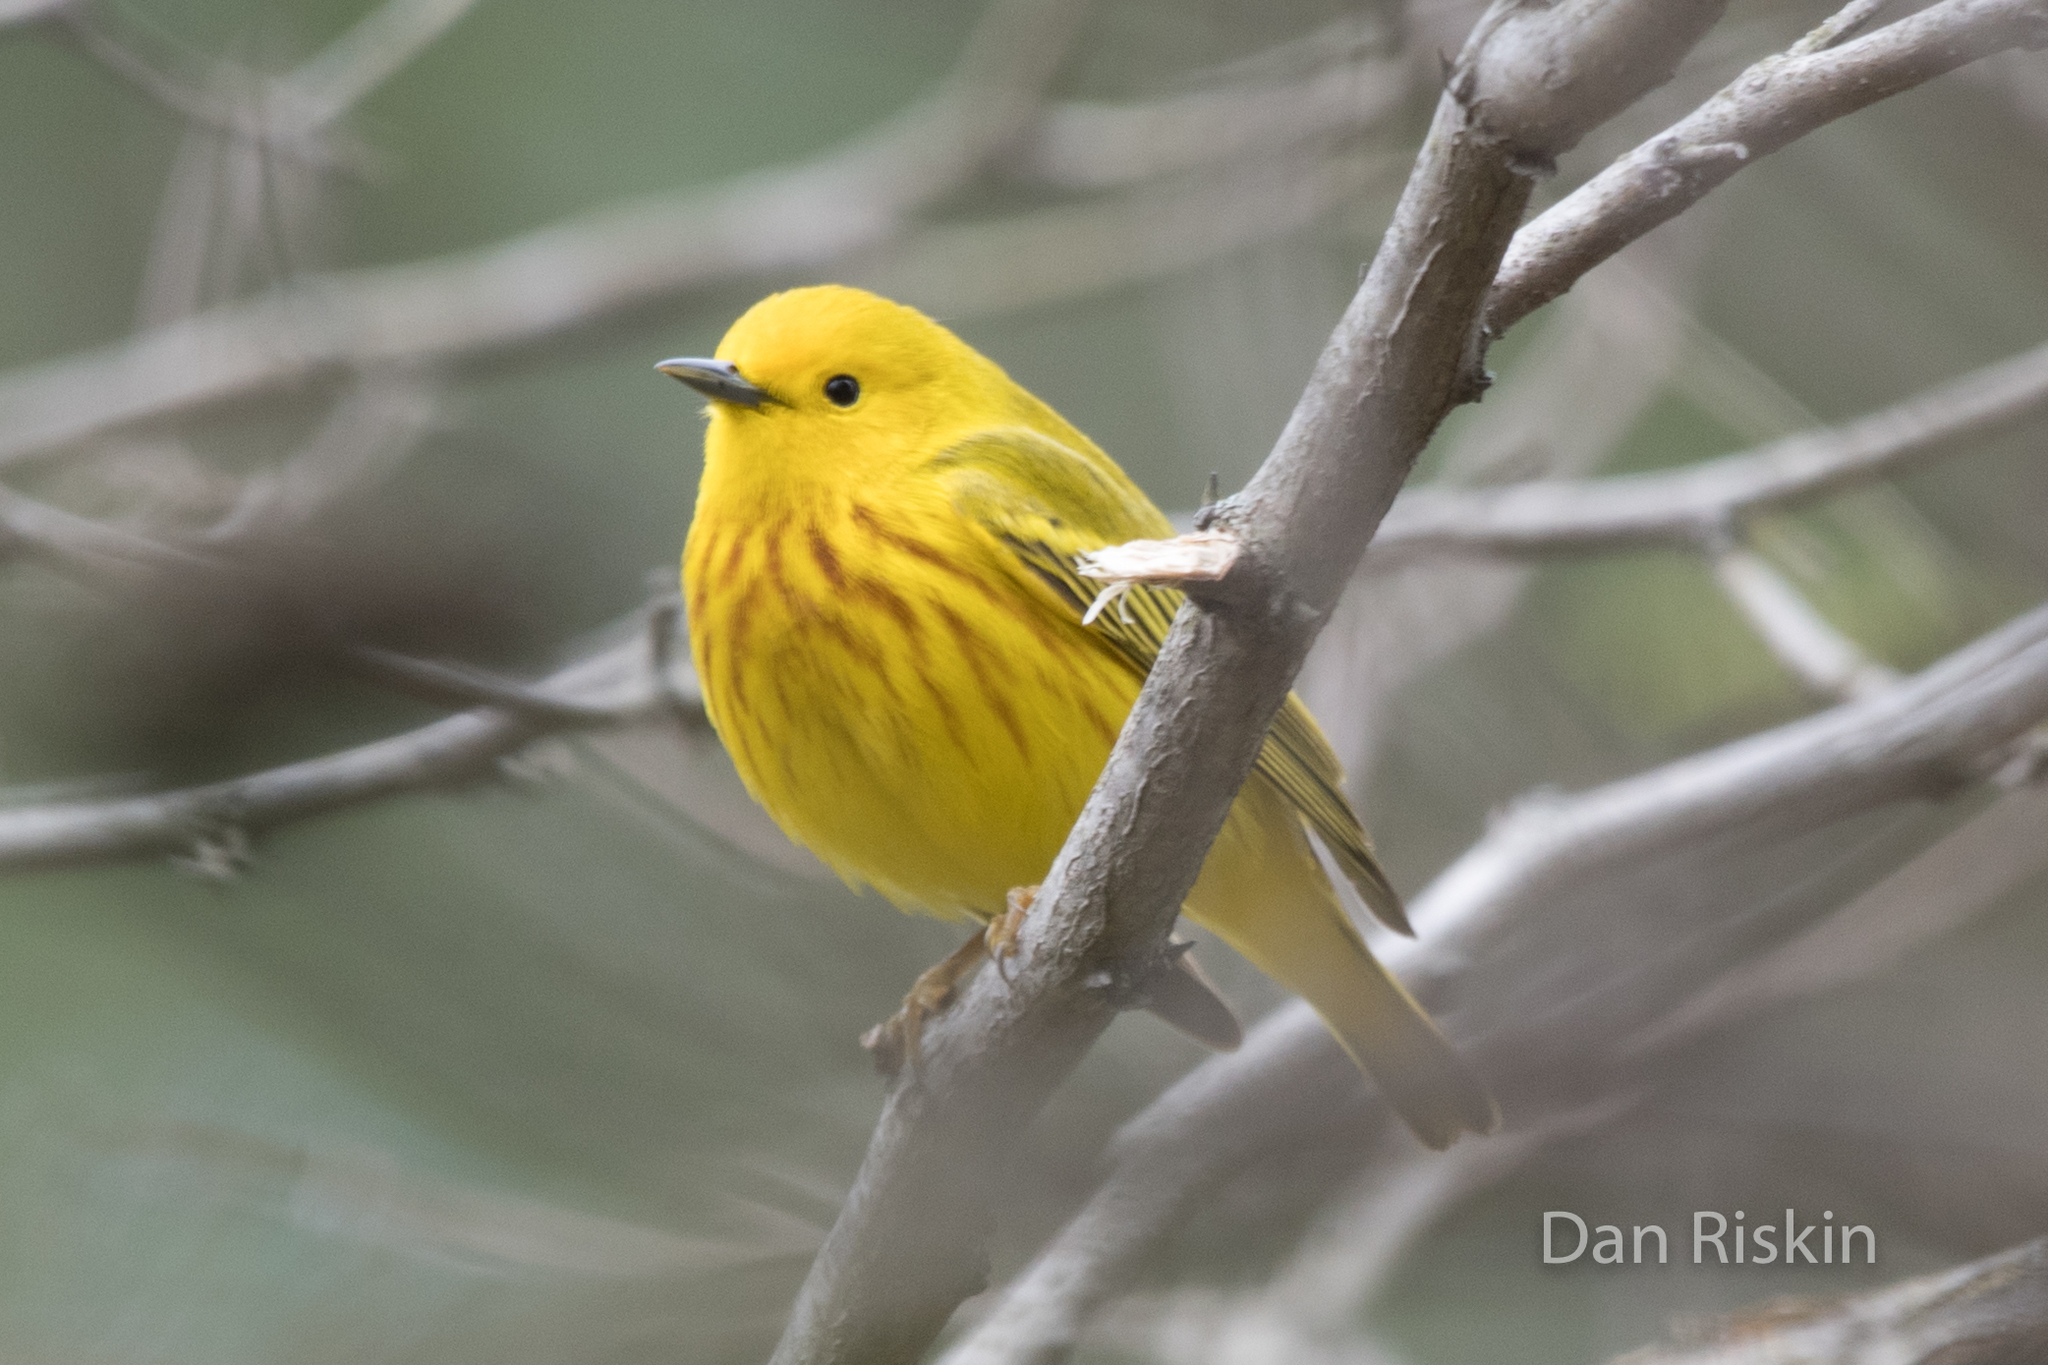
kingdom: Animalia
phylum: Chordata
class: Aves
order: Passeriformes
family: Parulidae
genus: Setophaga
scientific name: Setophaga petechia
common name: Yellow warbler
